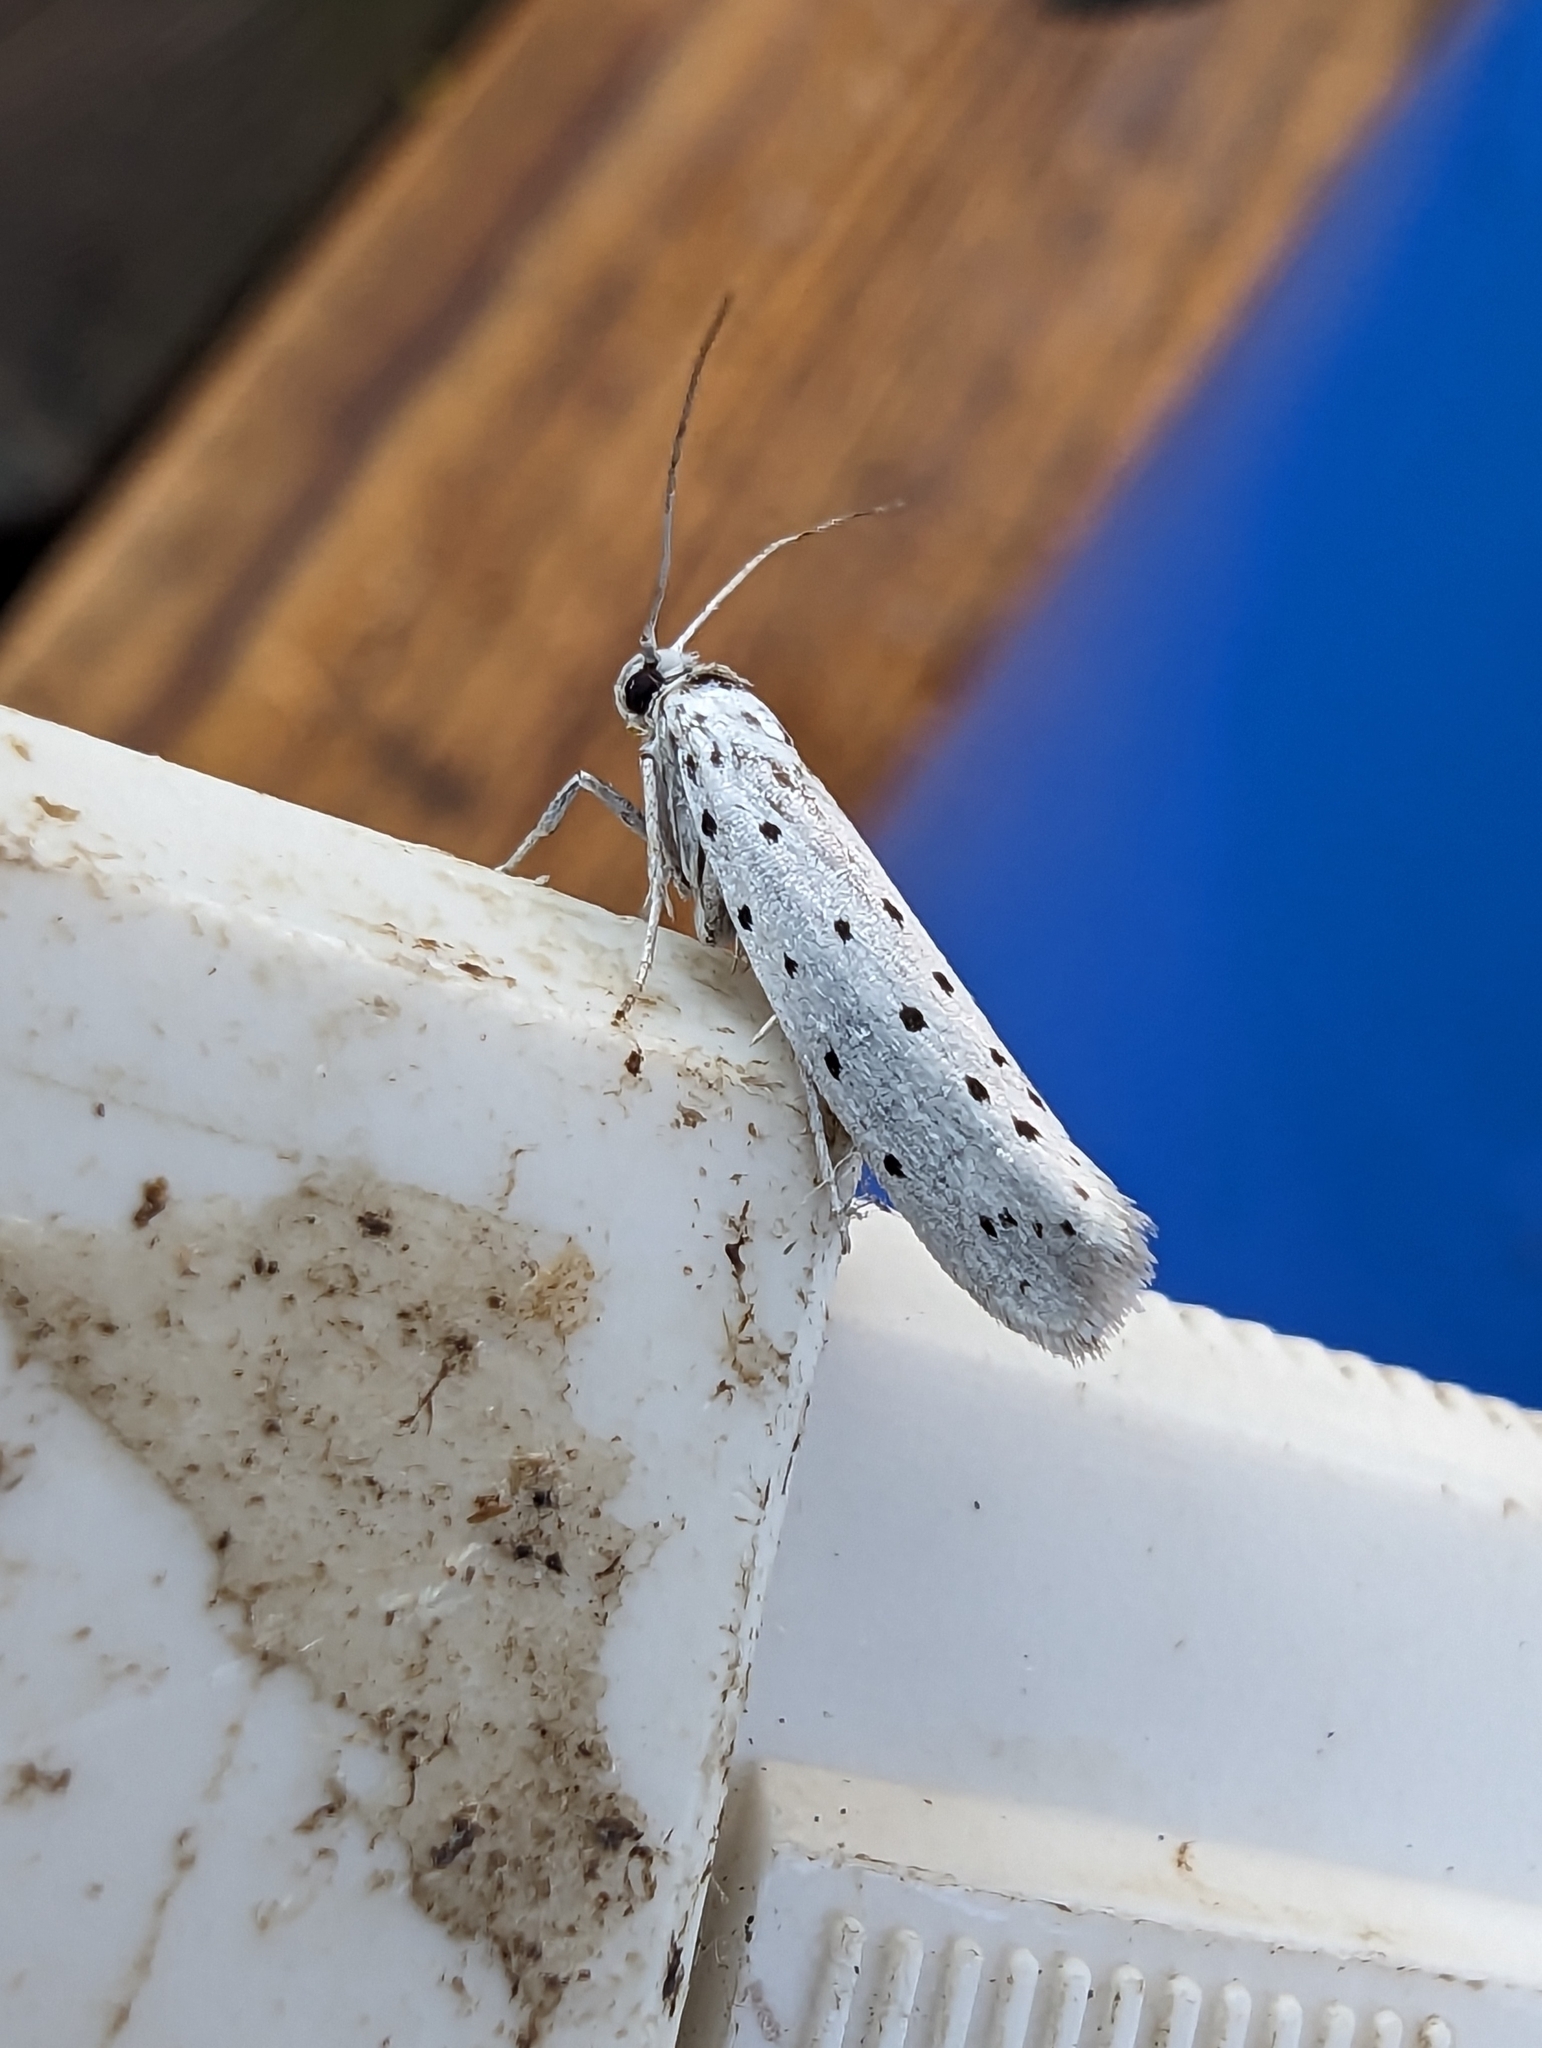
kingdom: Animalia
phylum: Arthropoda
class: Insecta
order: Lepidoptera
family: Yponomeutidae
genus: Yponomeuta
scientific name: Yponomeuta
